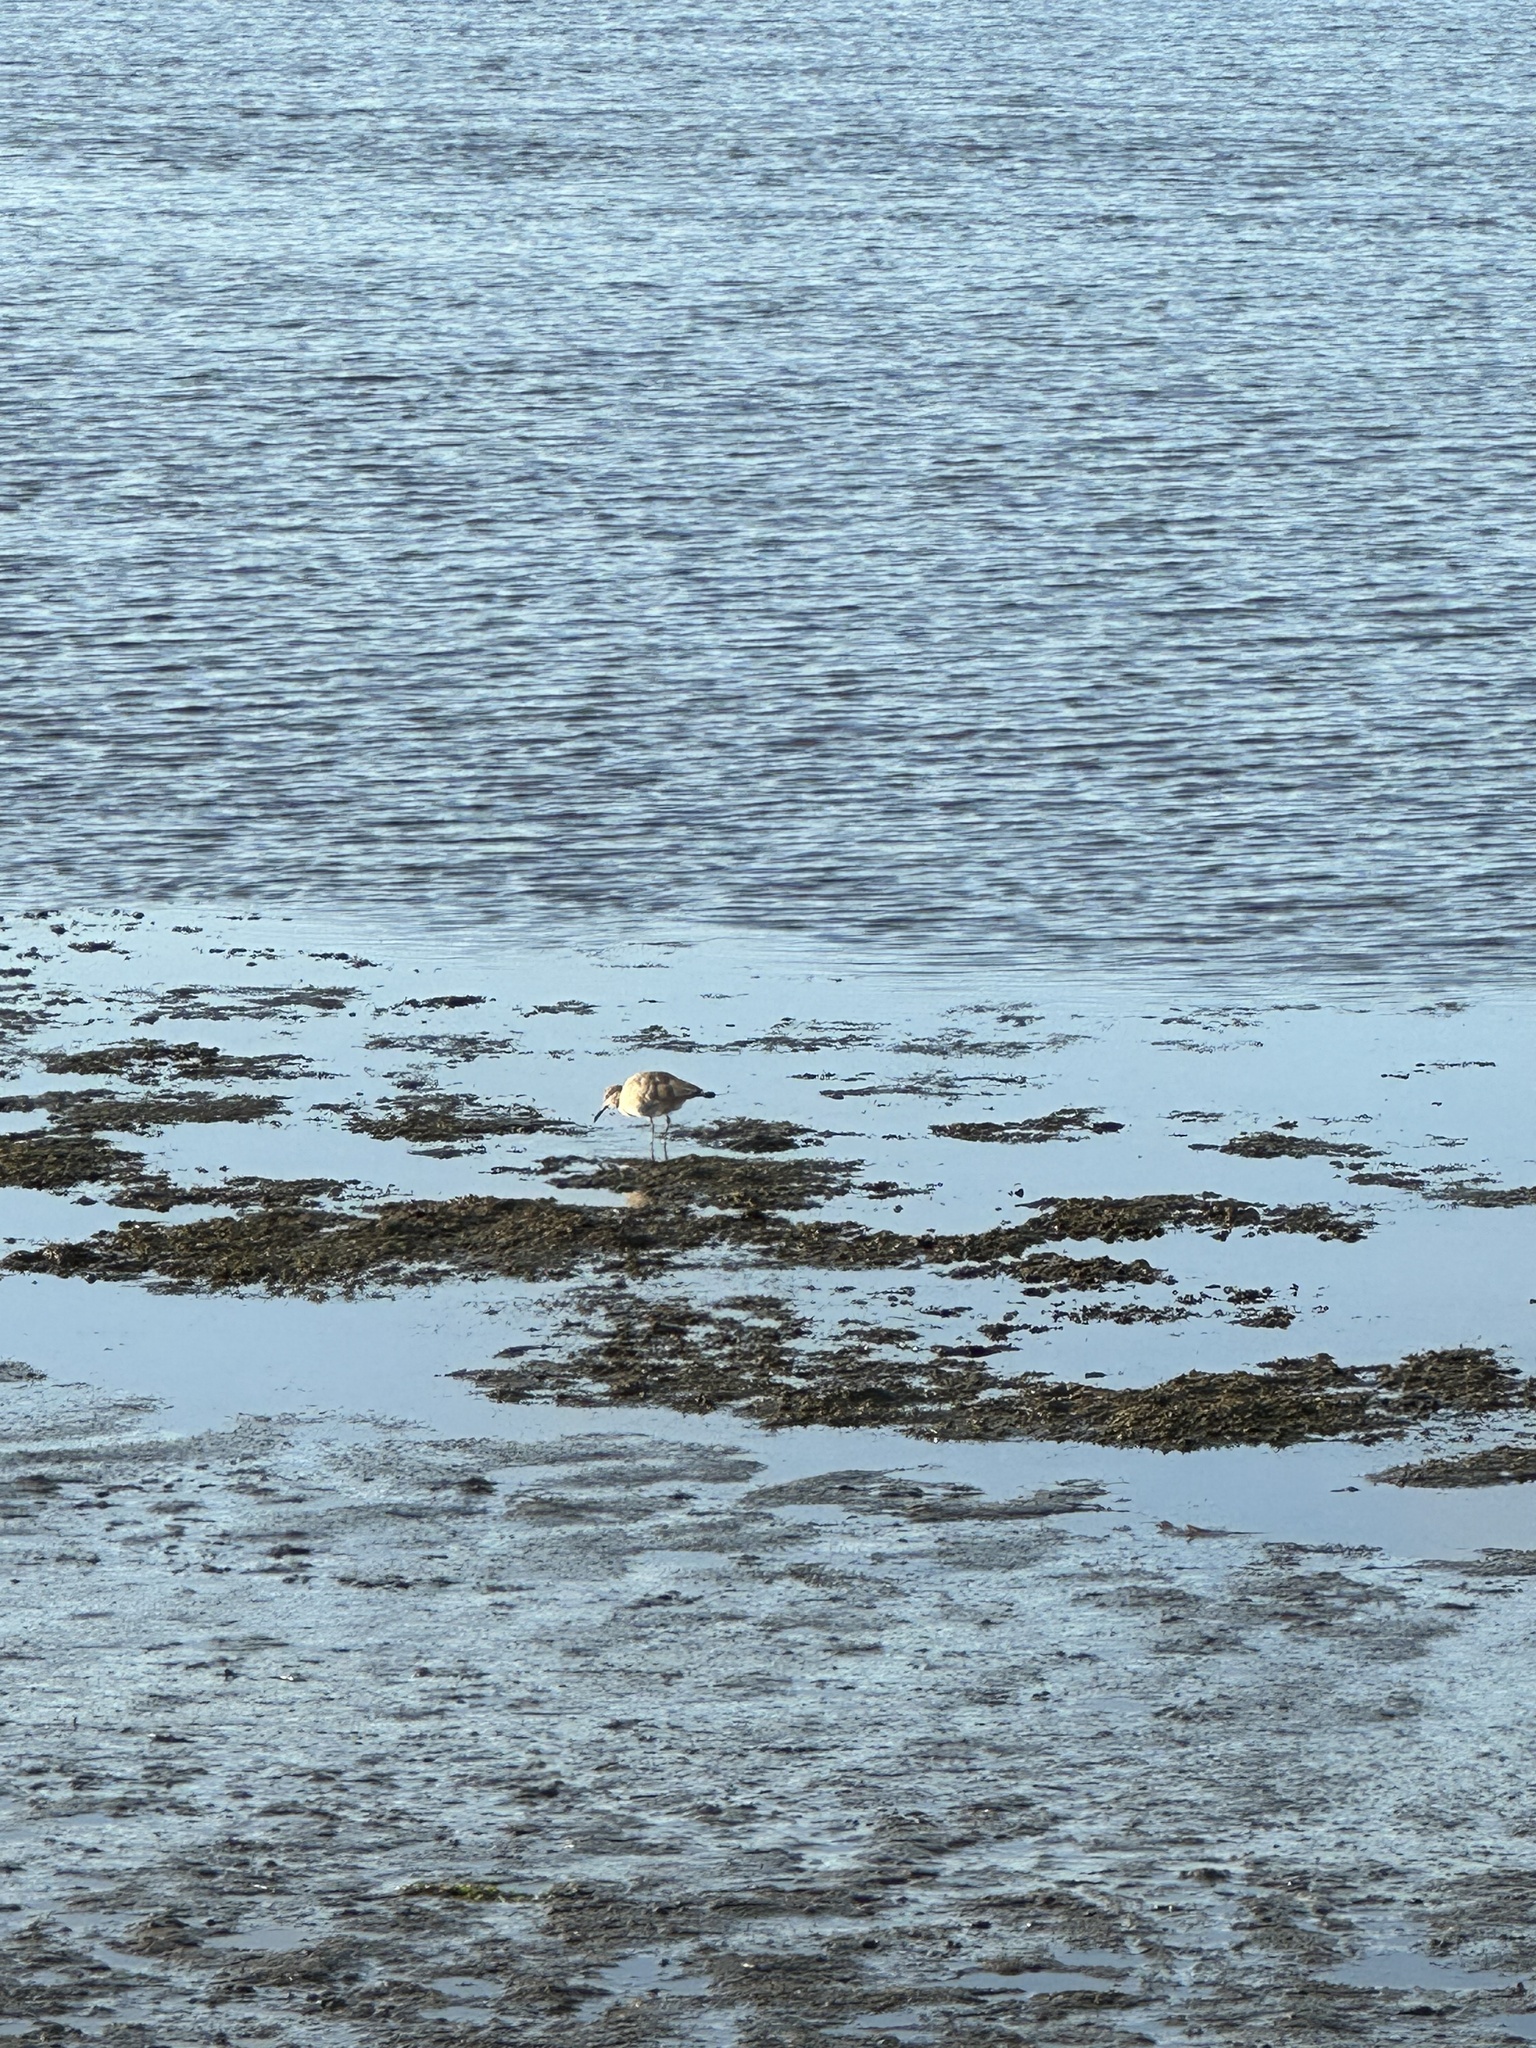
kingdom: Animalia
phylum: Chordata
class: Aves
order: Charadriiformes
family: Scolopacidae
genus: Tringa
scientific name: Tringa semipalmata
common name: Willet
